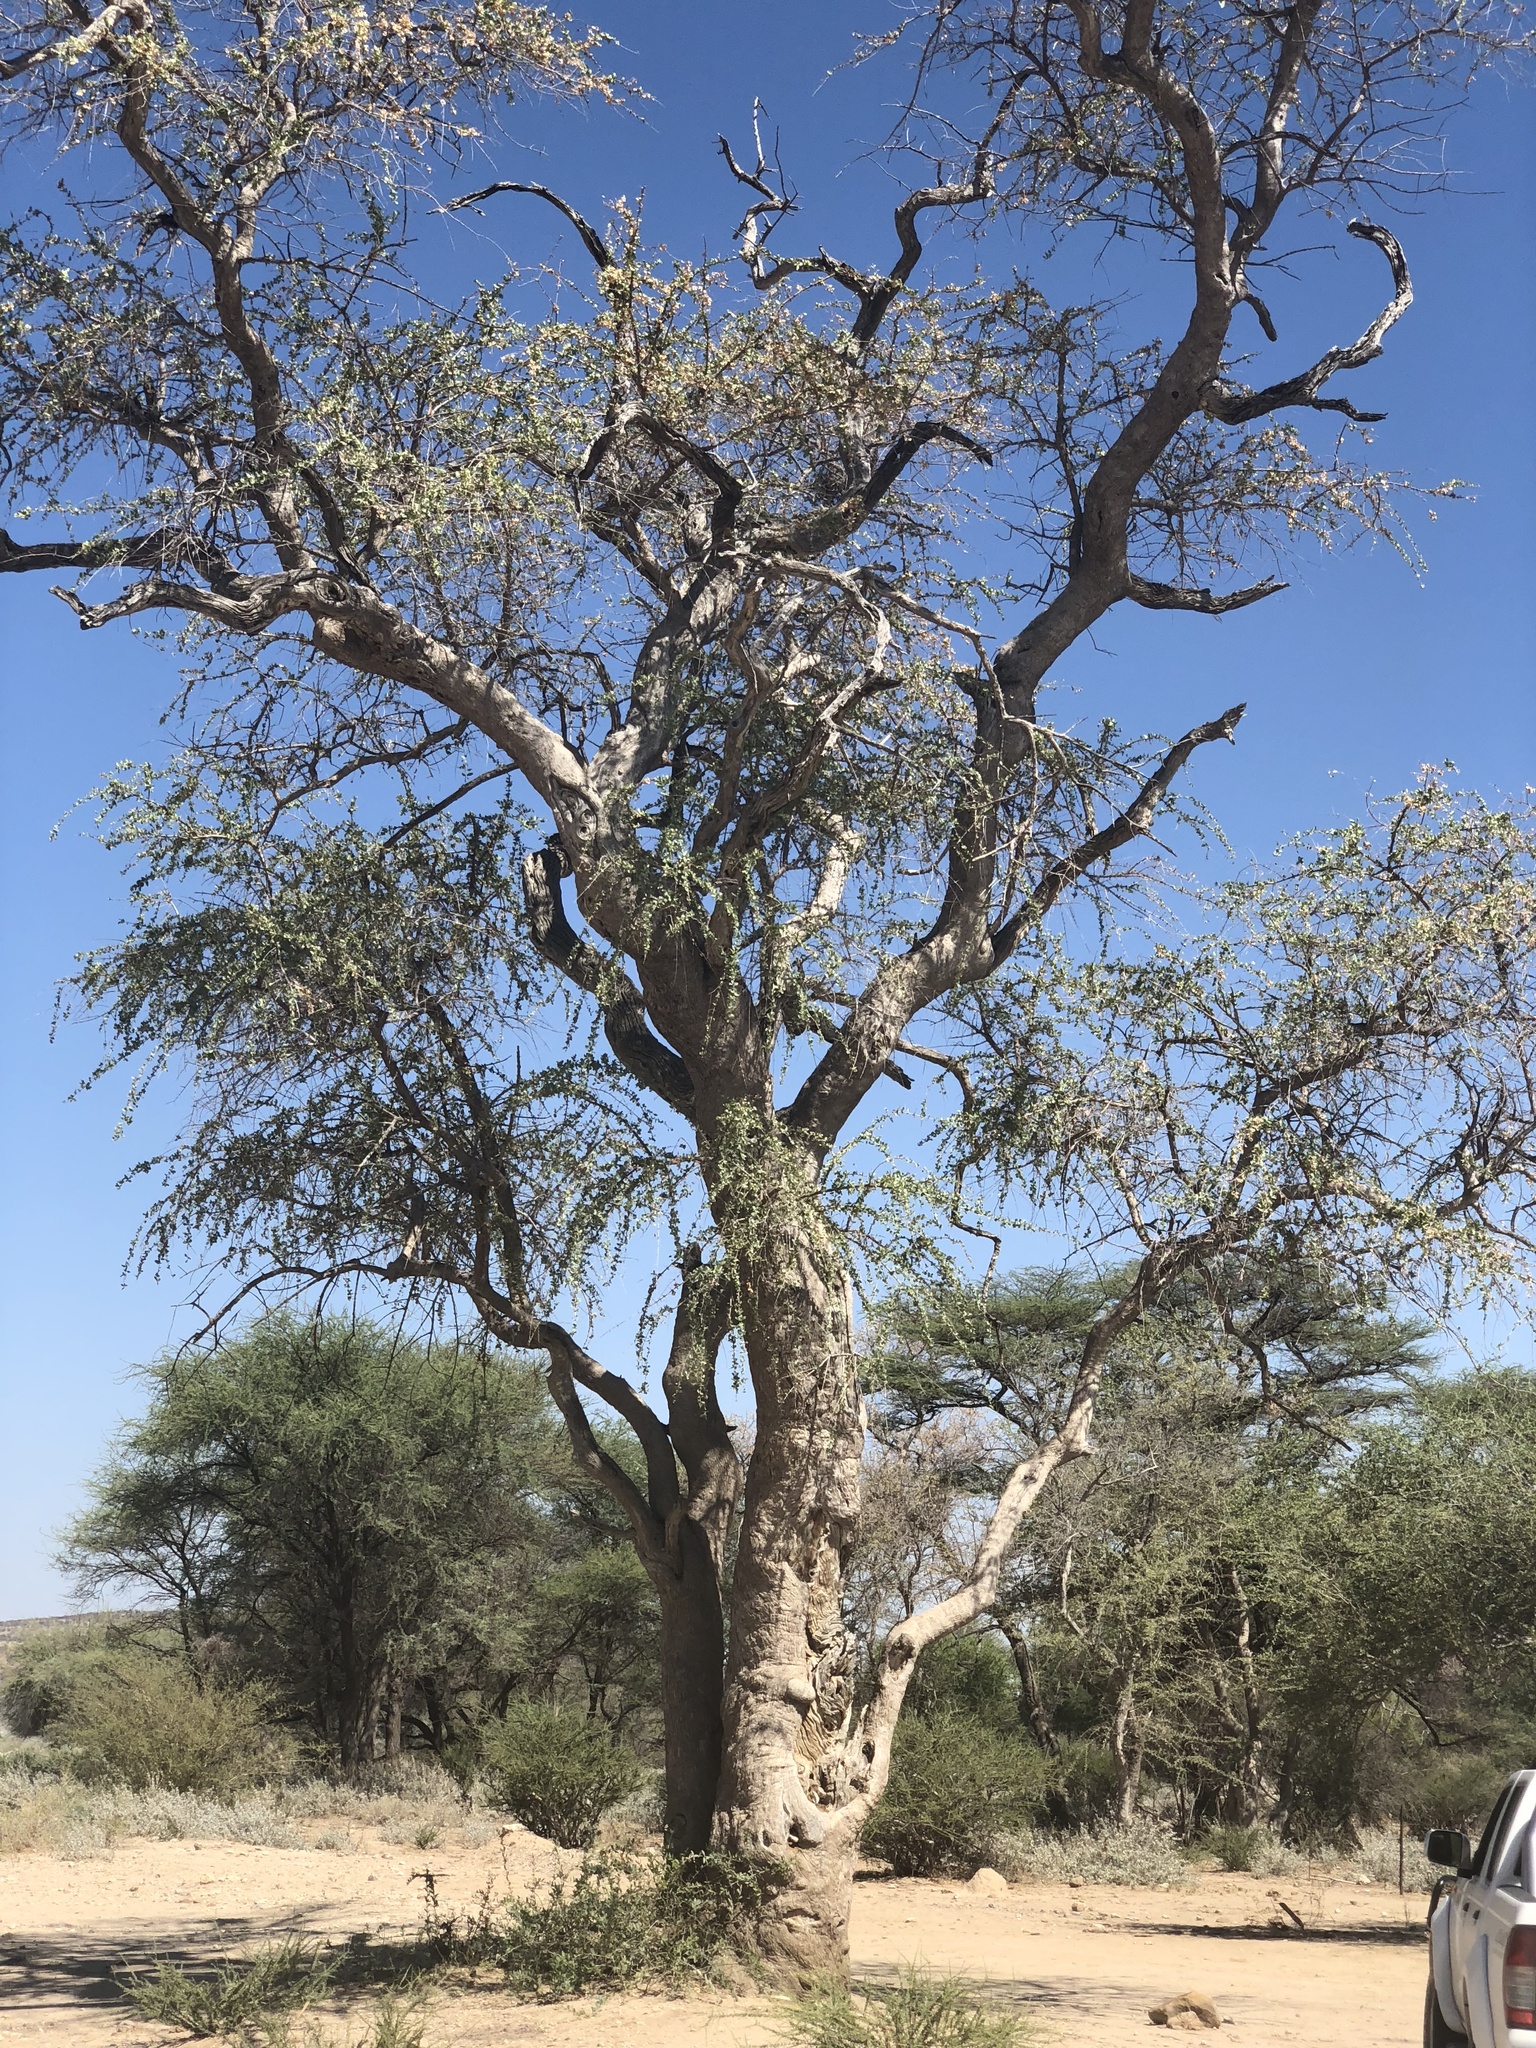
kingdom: Plantae
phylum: Tracheophyta
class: Magnoliopsida
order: Myrtales
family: Combretaceae
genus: Combretum
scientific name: Combretum imberbe
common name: Leadwood
